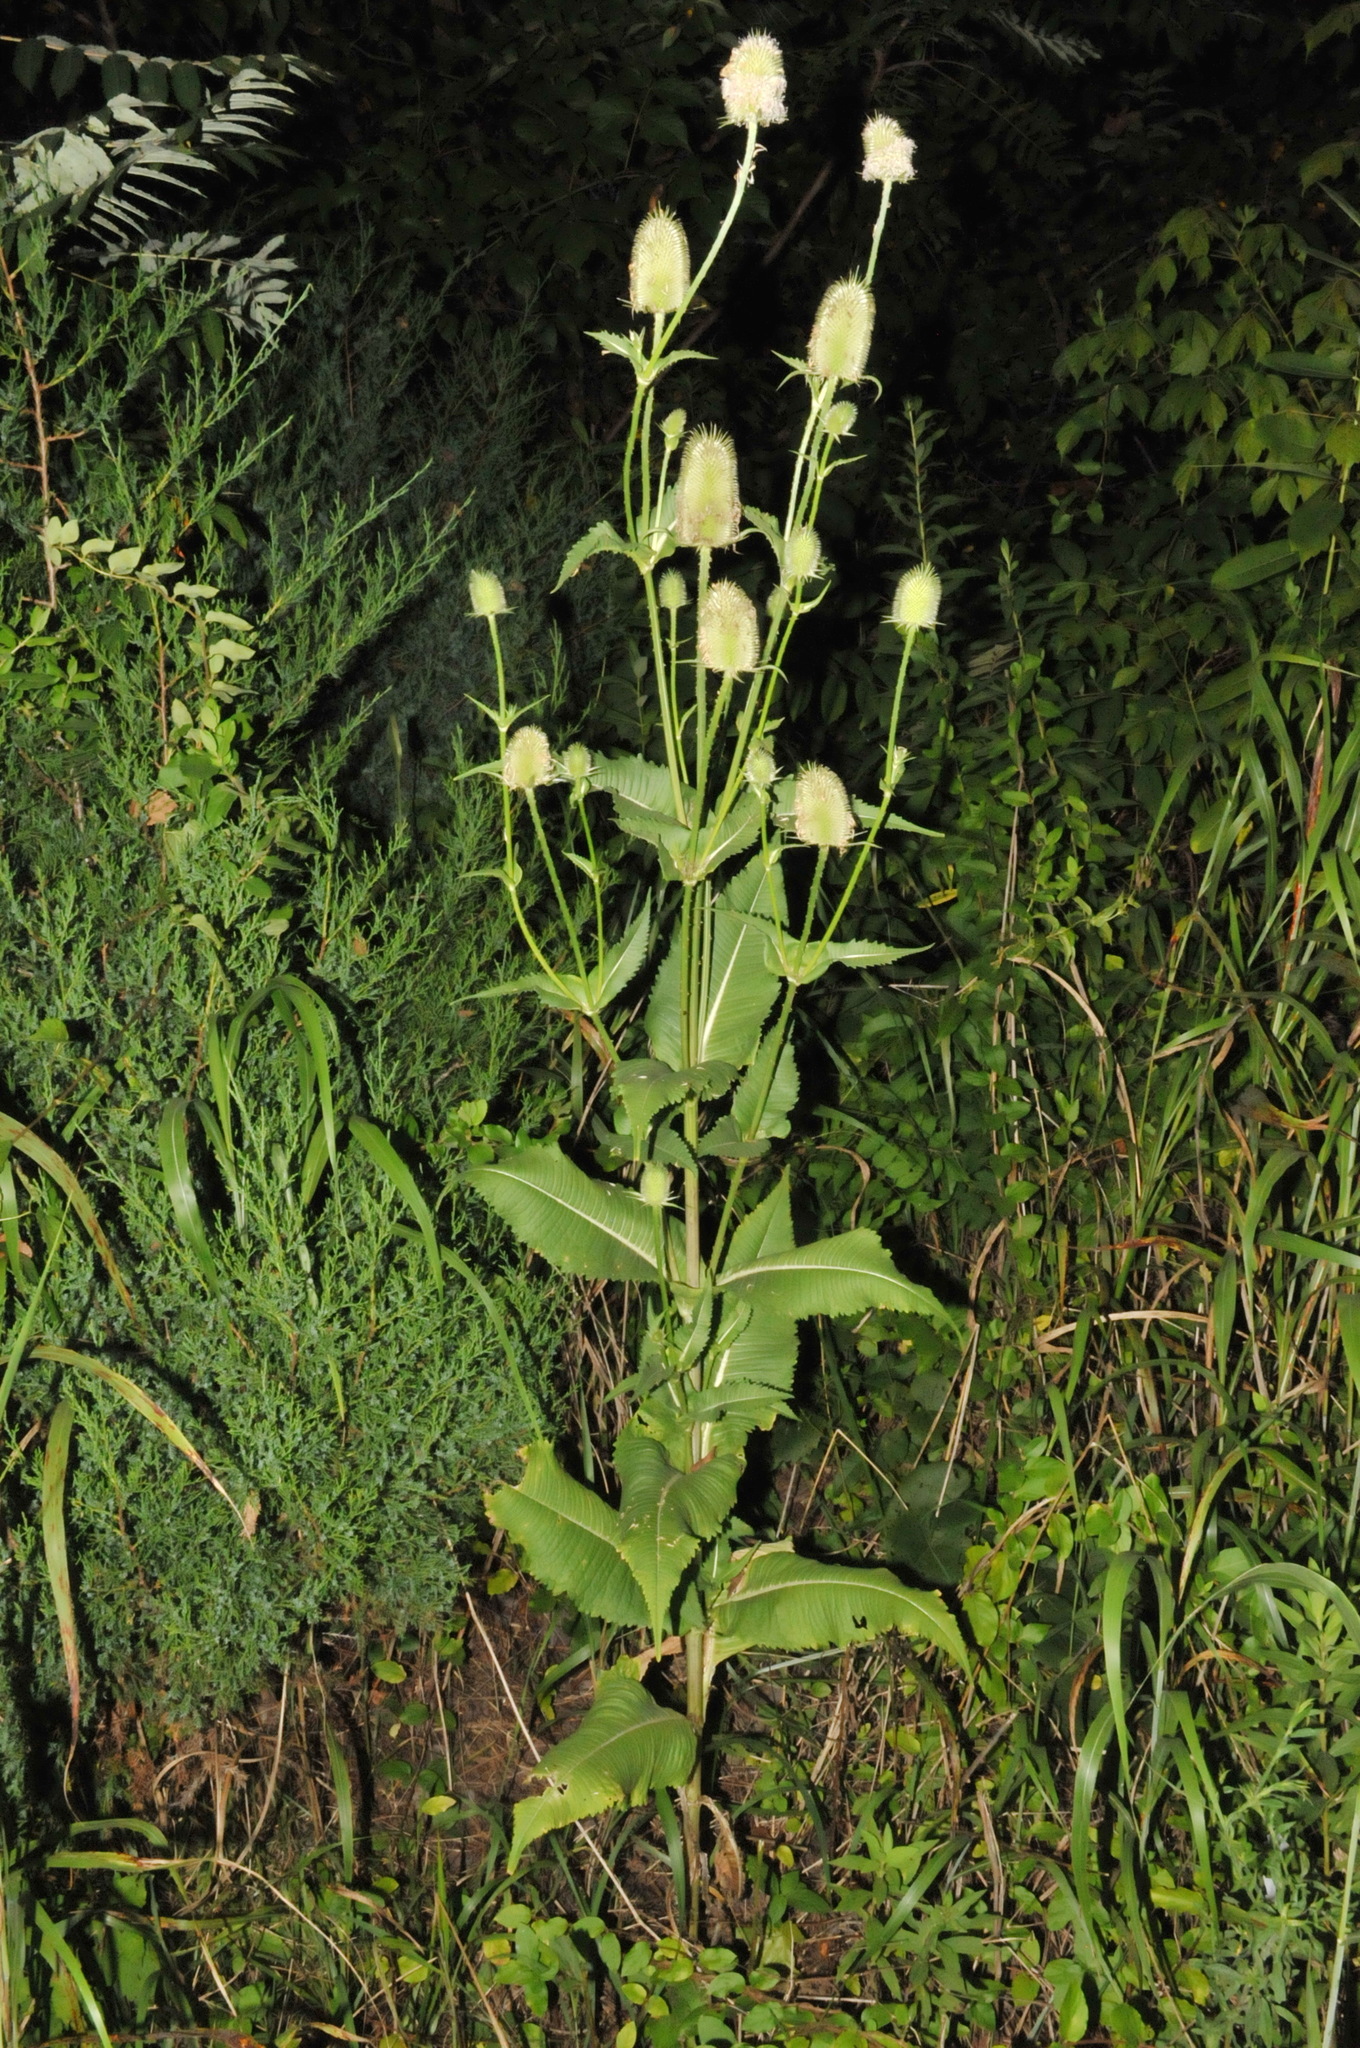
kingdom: Plantae
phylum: Tracheophyta
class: Magnoliopsida
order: Dipsacales
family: Caprifoliaceae
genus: Dipsacus
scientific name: Dipsacus laciniatus
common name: Cut-leaved teasel
